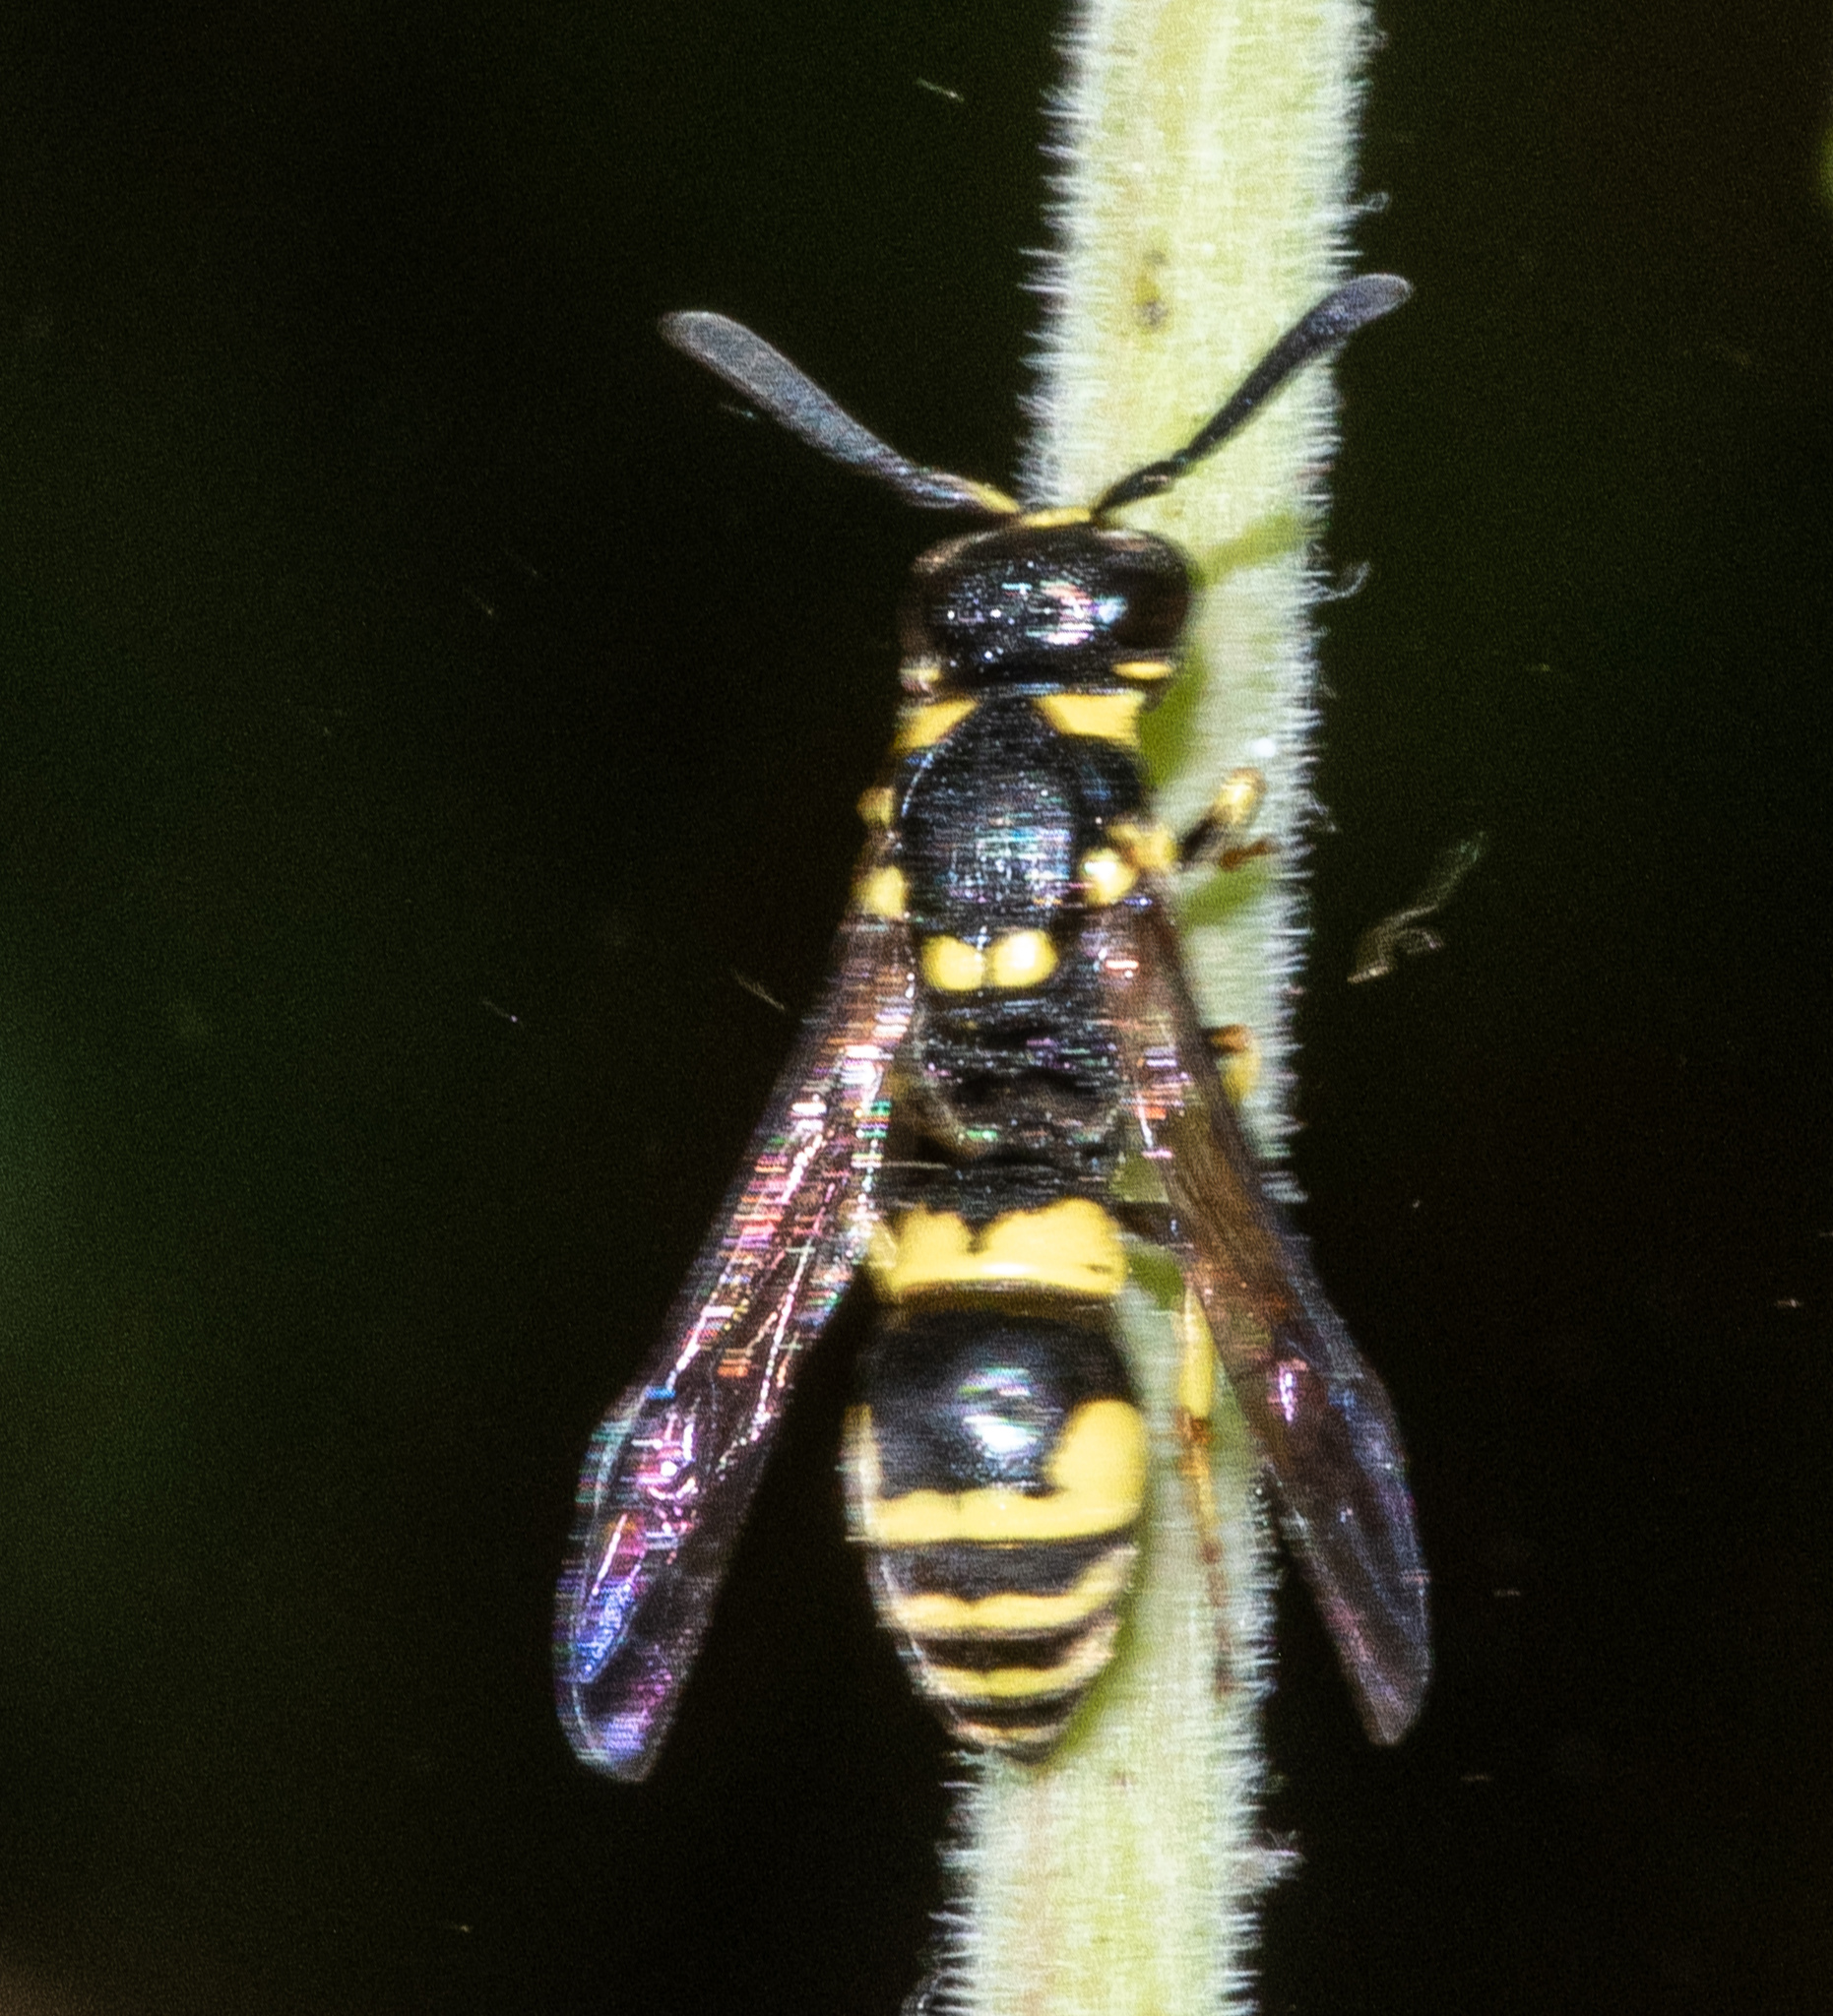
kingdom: Animalia
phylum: Arthropoda
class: Insecta
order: Hymenoptera
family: Eumenidae
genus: Symmorphus
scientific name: Symmorphus projectus
